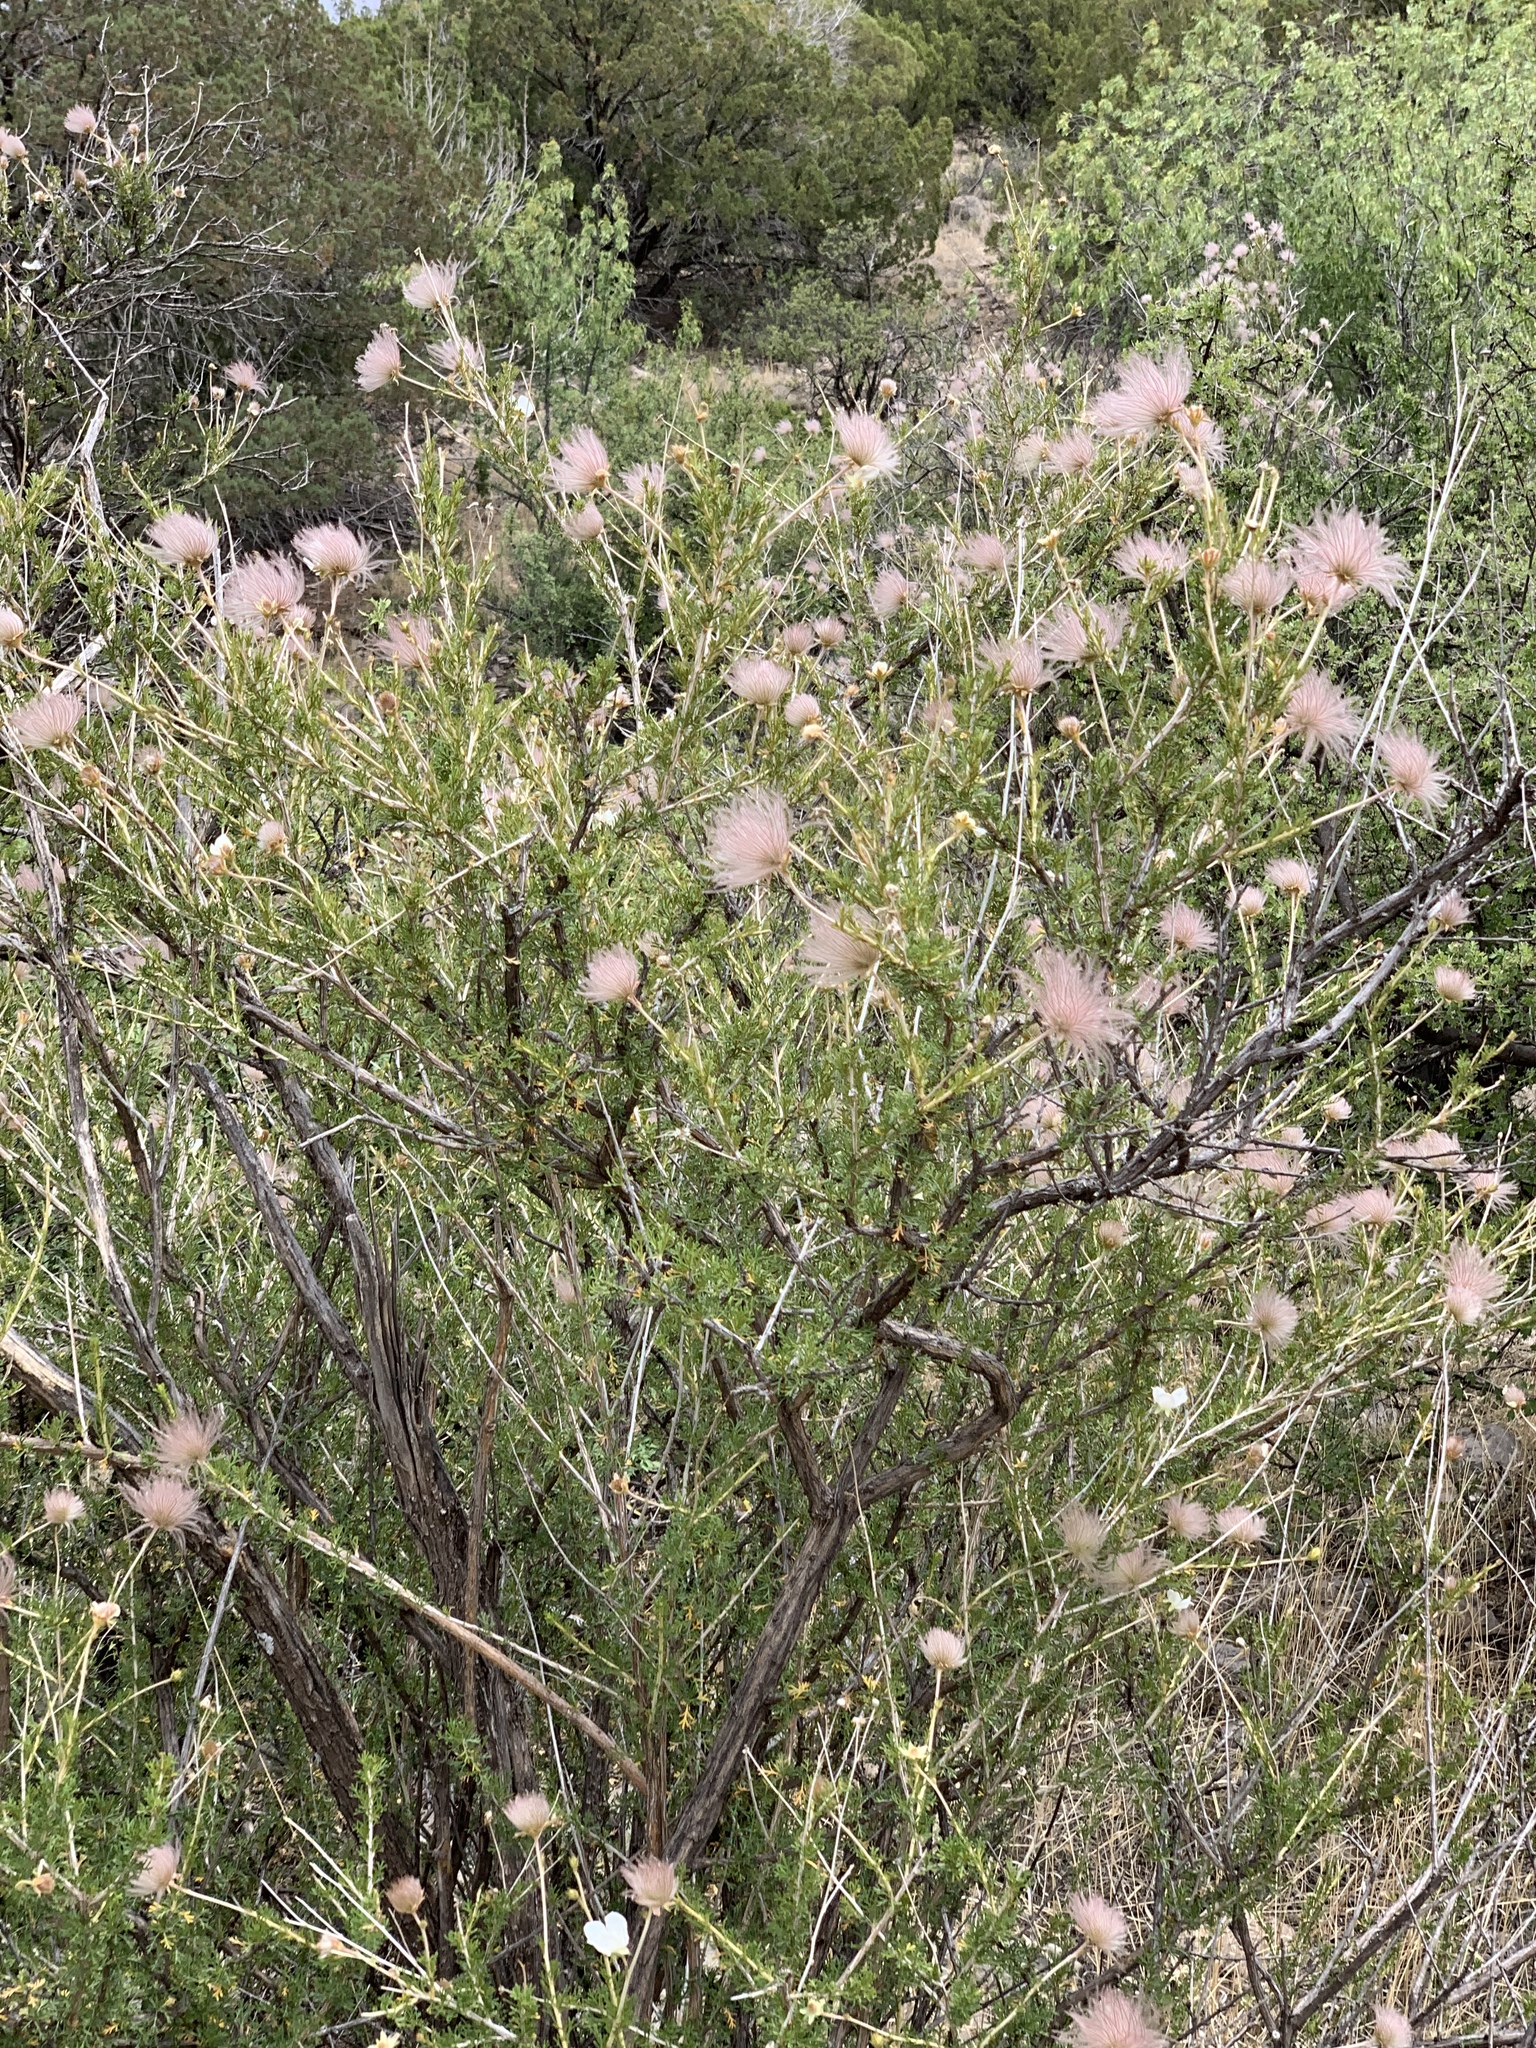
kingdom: Plantae
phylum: Tracheophyta
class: Magnoliopsida
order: Rosales
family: Rosaceae
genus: Fallugia
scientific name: Fallugia paradoxa
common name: Apache-plume
